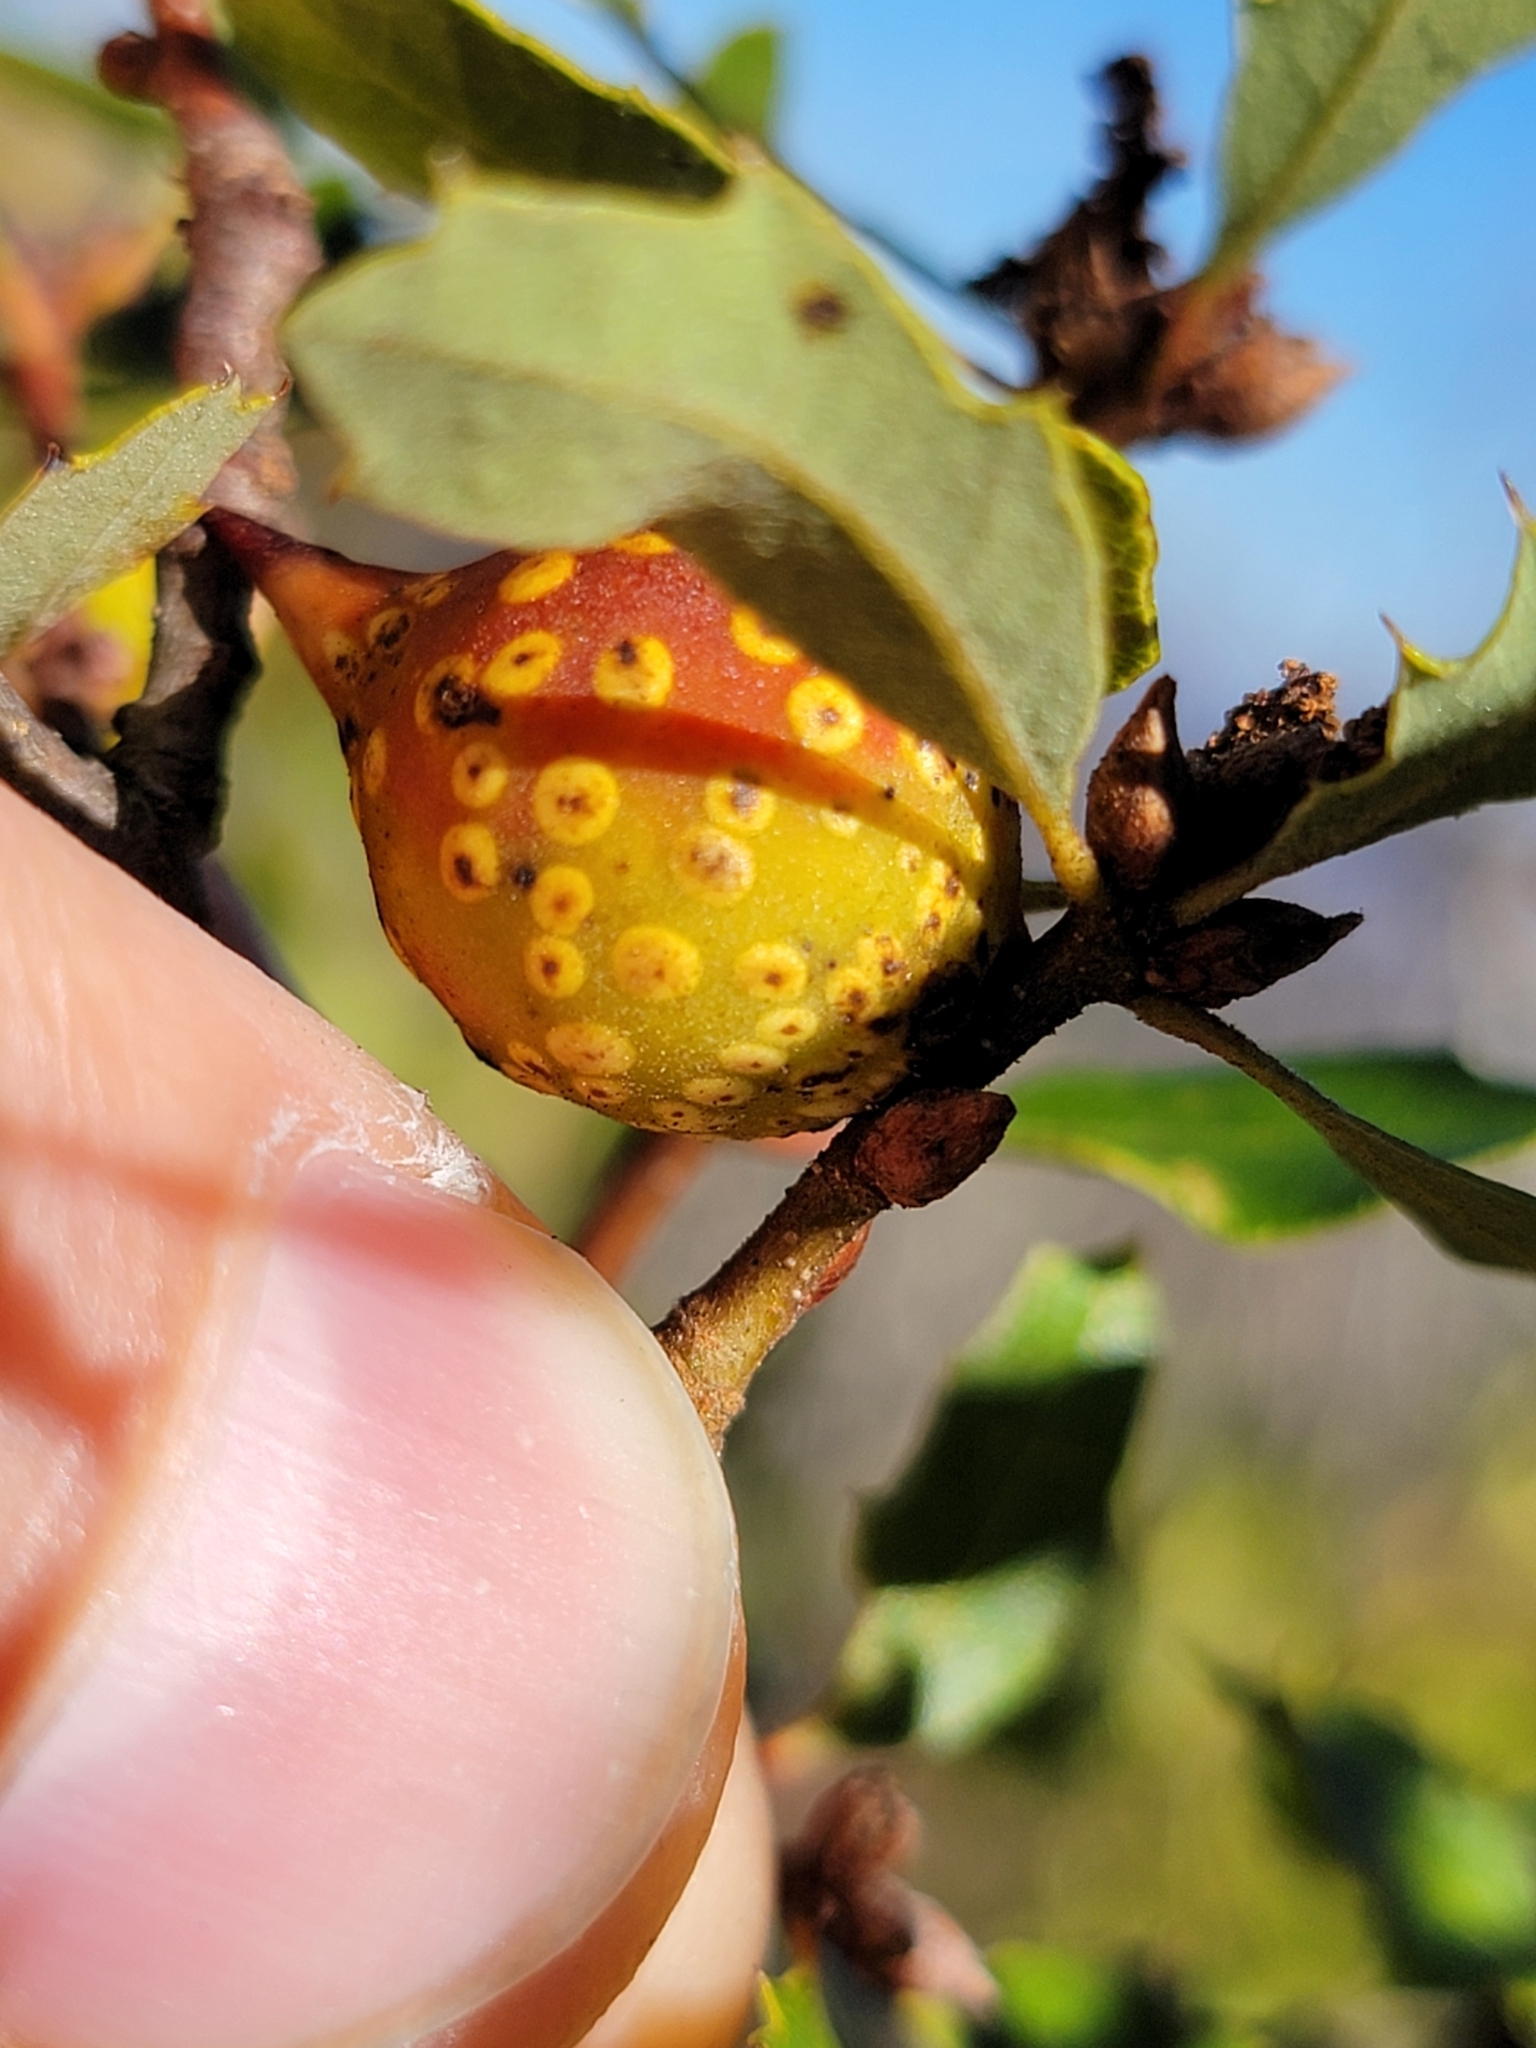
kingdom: Animalia
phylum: Arthropoda
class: Insecta
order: Hymenoptera
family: Cynipidae
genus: Burnettweldia
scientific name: Burnettweldia
